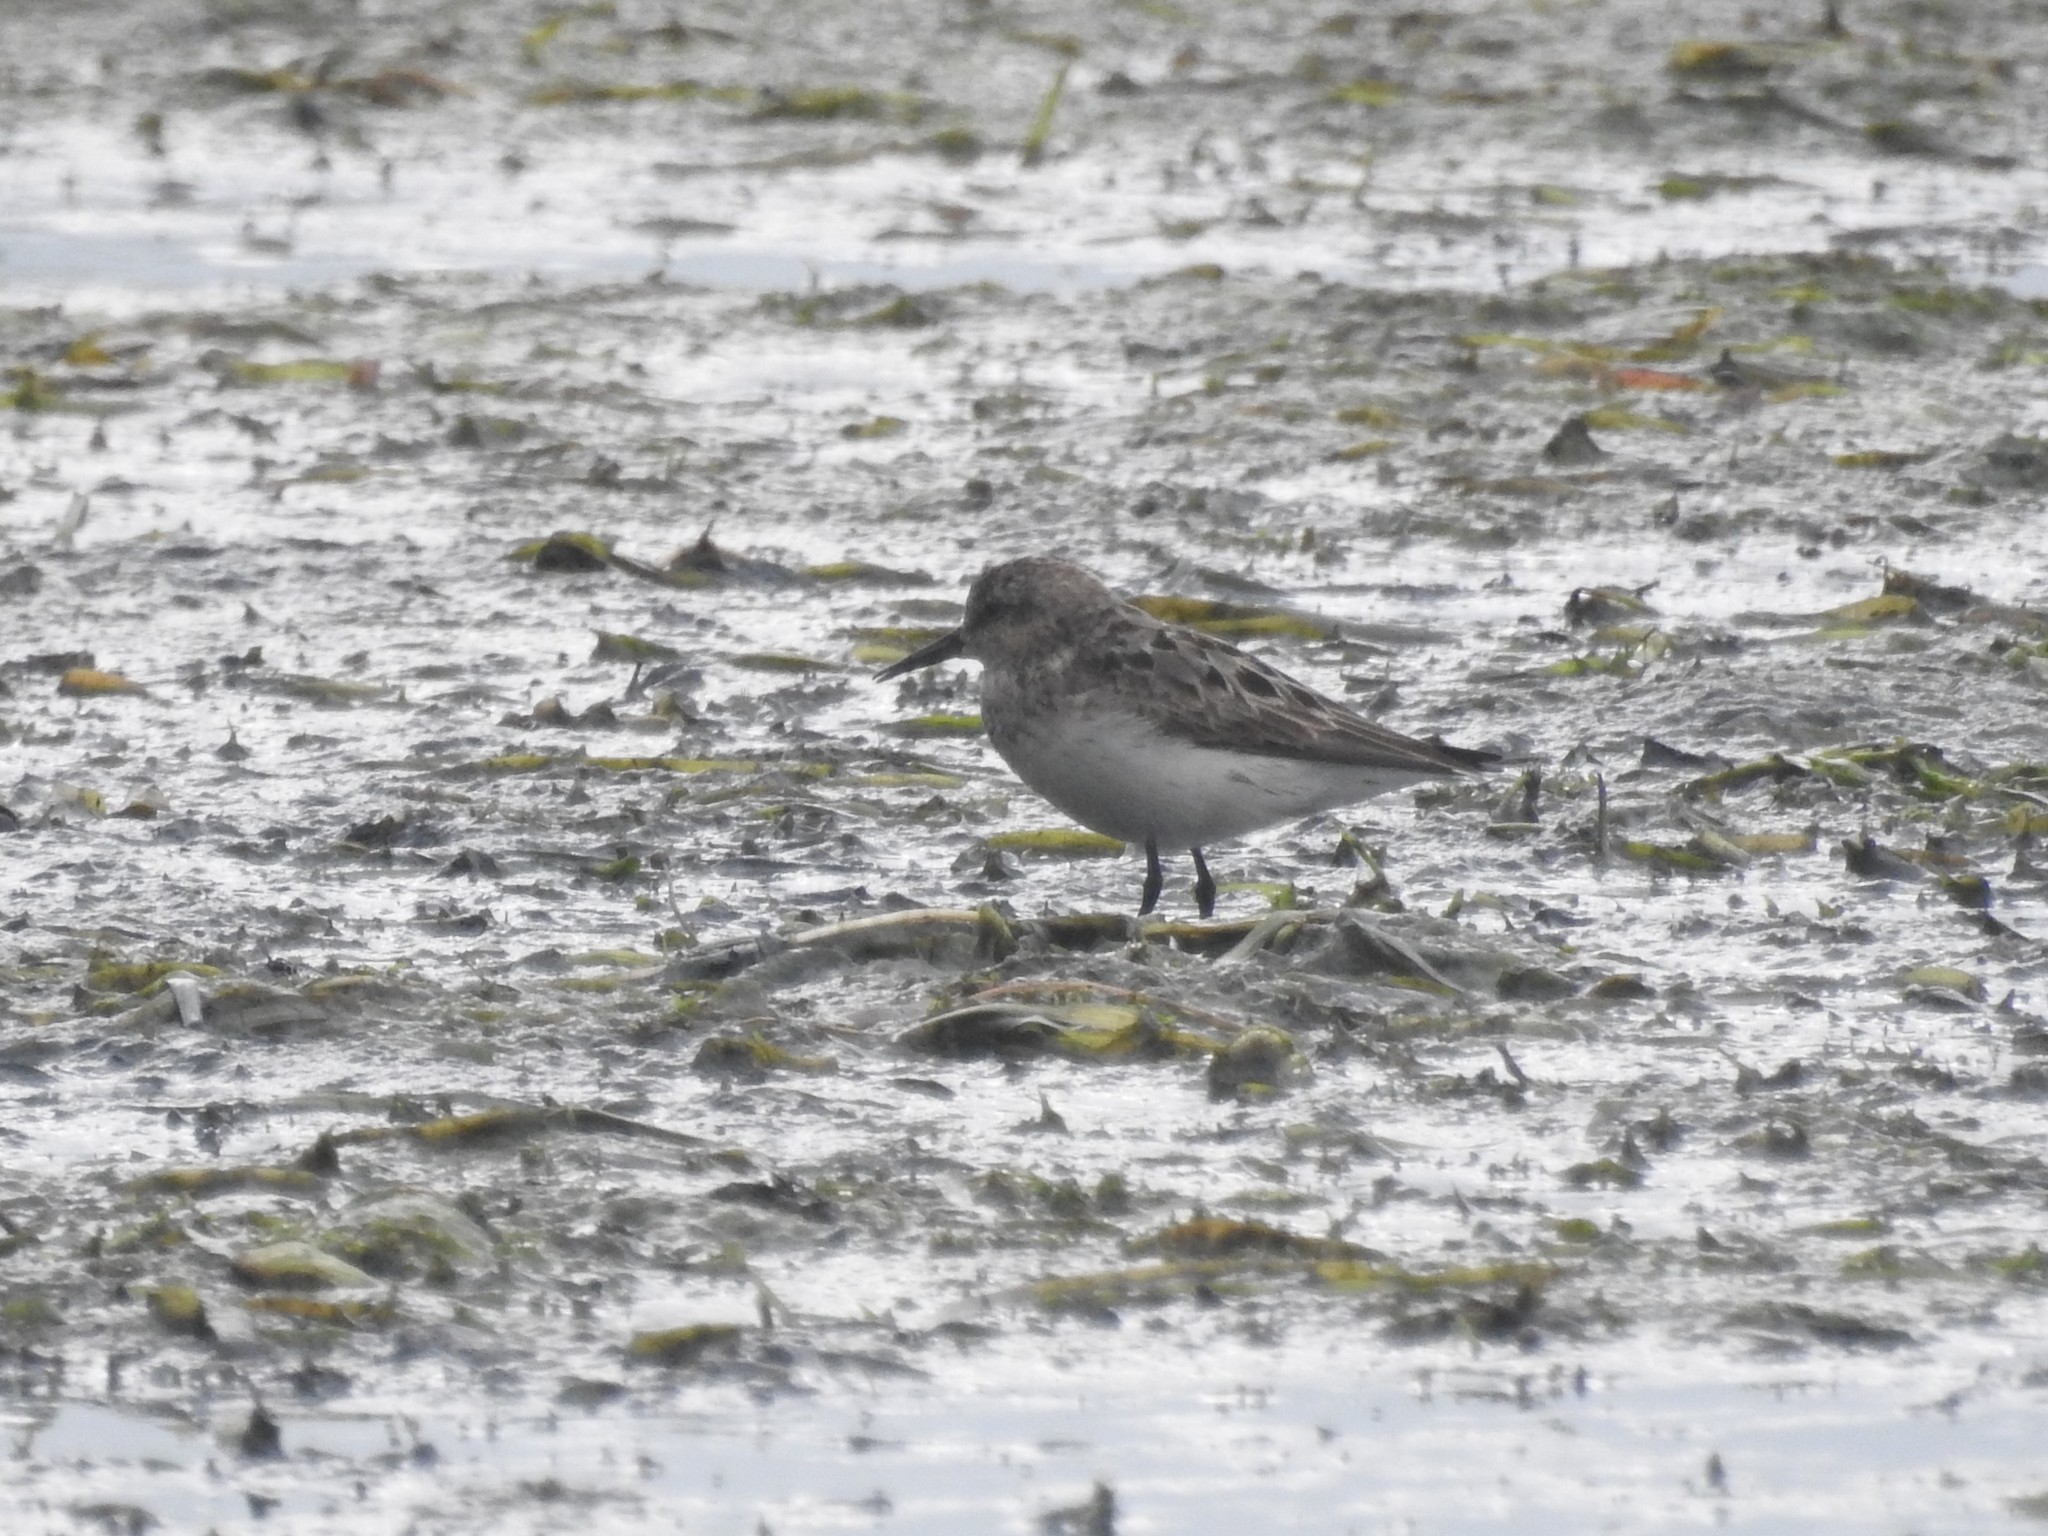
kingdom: Animalia
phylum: Chordata
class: Aves
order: Charadriiformes
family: Scolopacidae
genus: Calidris
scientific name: Calidris pusilla
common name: Semipalmated sandpiper
